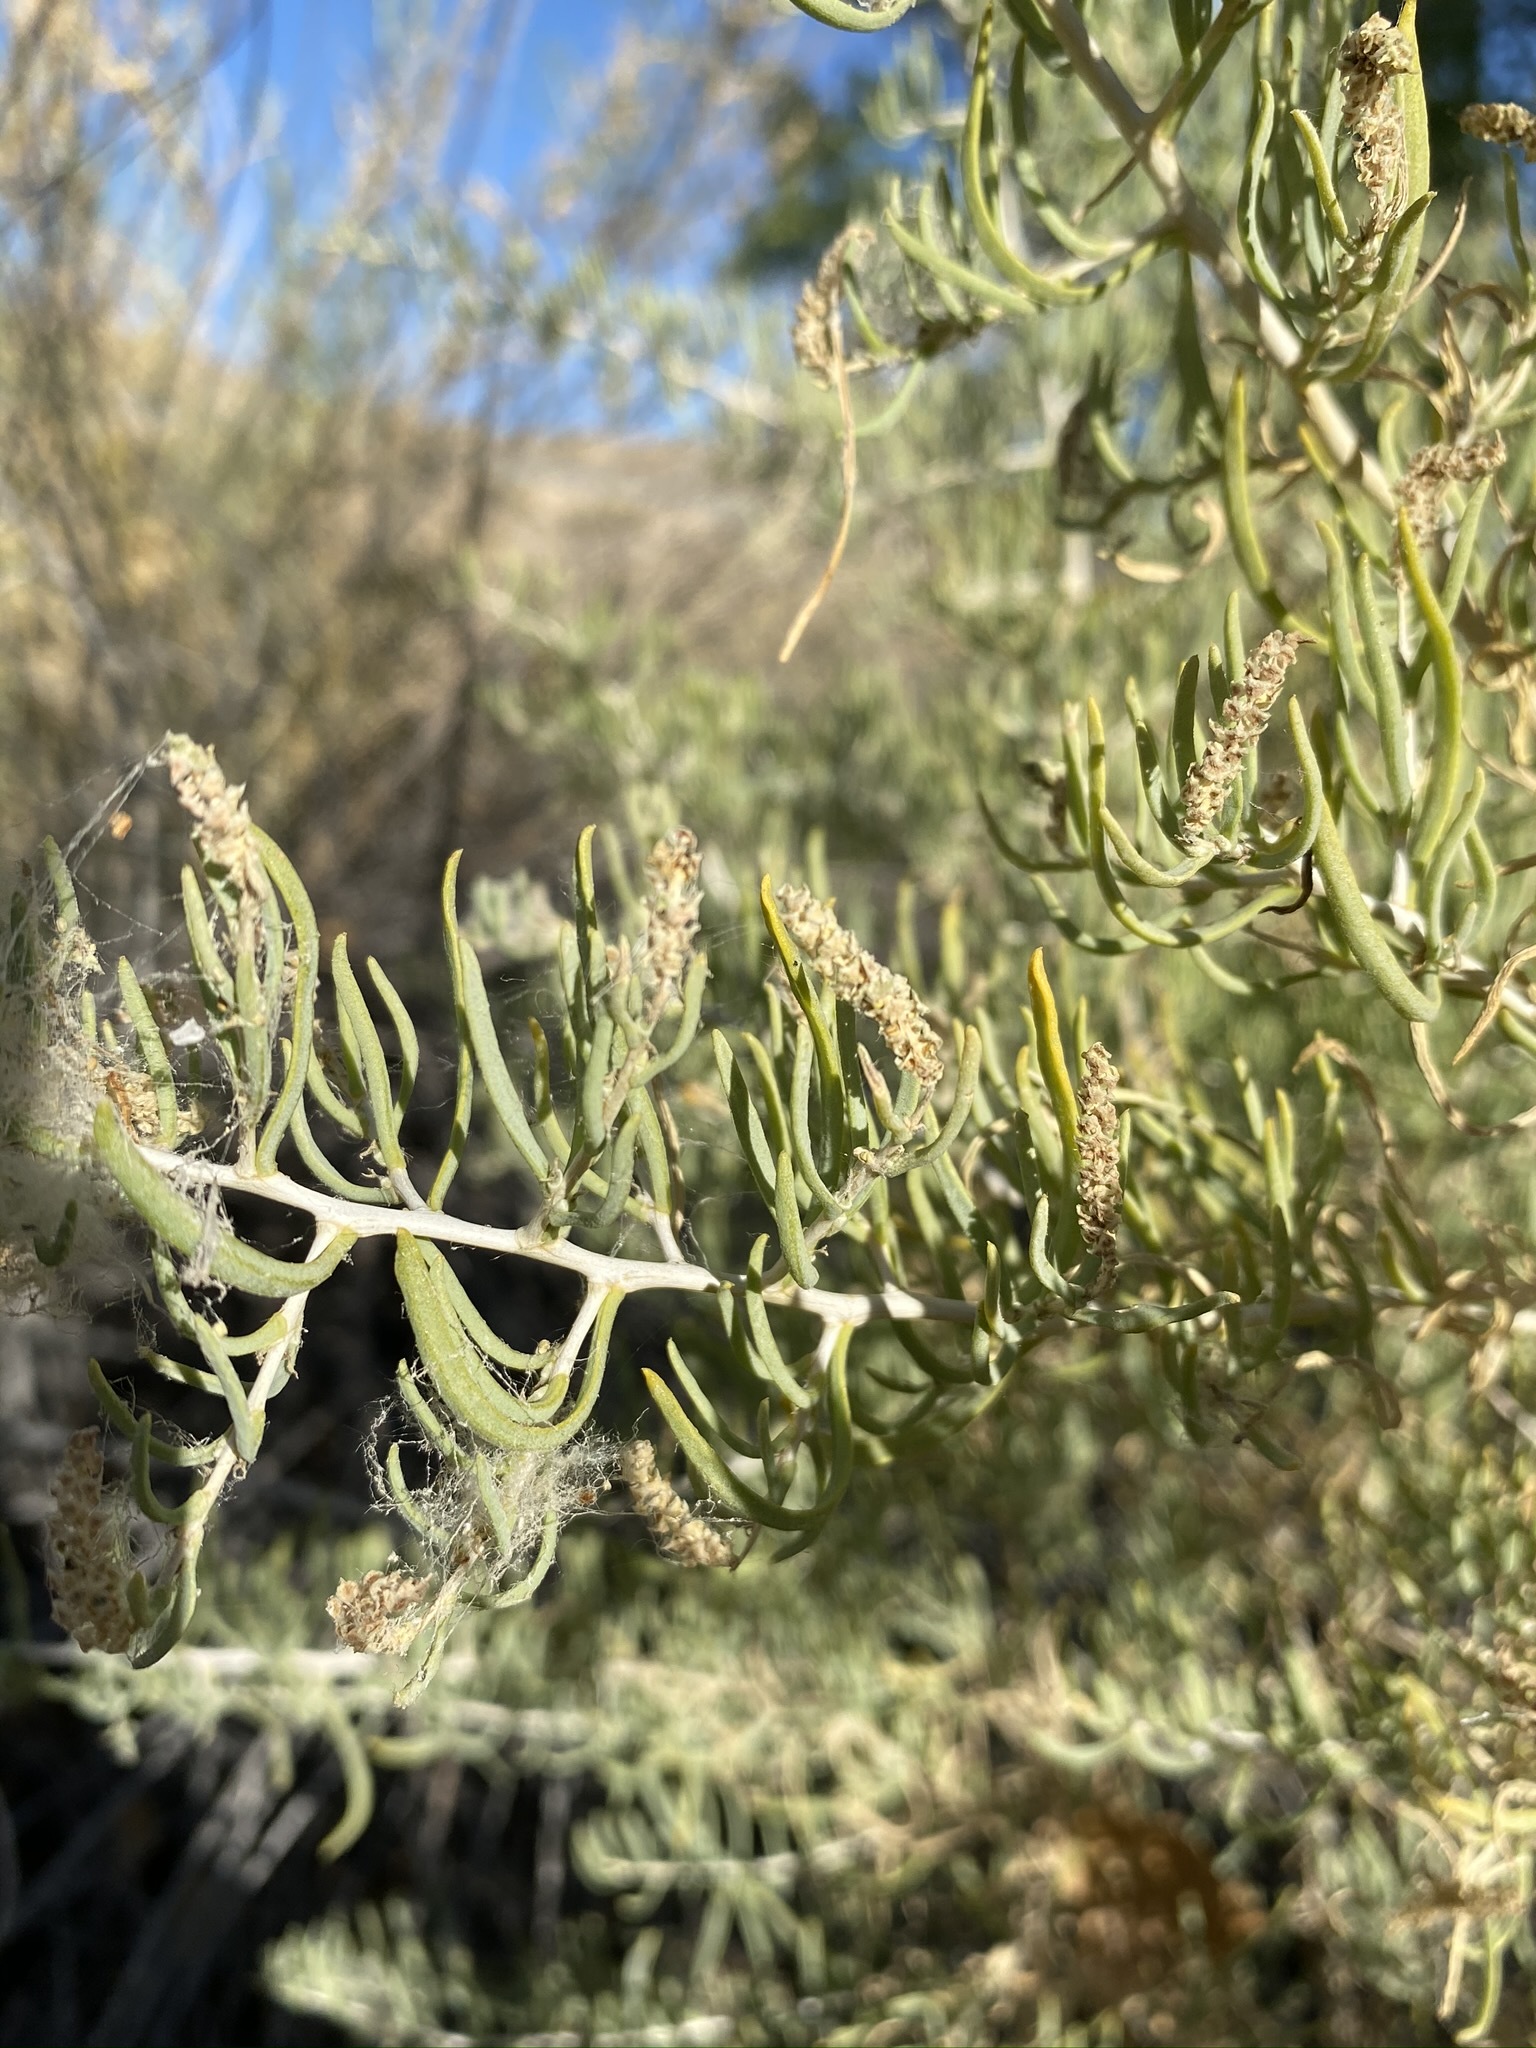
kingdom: Plantae
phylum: Tracheophyta
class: Magnoliopsida
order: Caryophyllales
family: Sarcobataceae
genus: Sarcobatus
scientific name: Sarcobatus vermiculatus
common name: Greasewood
